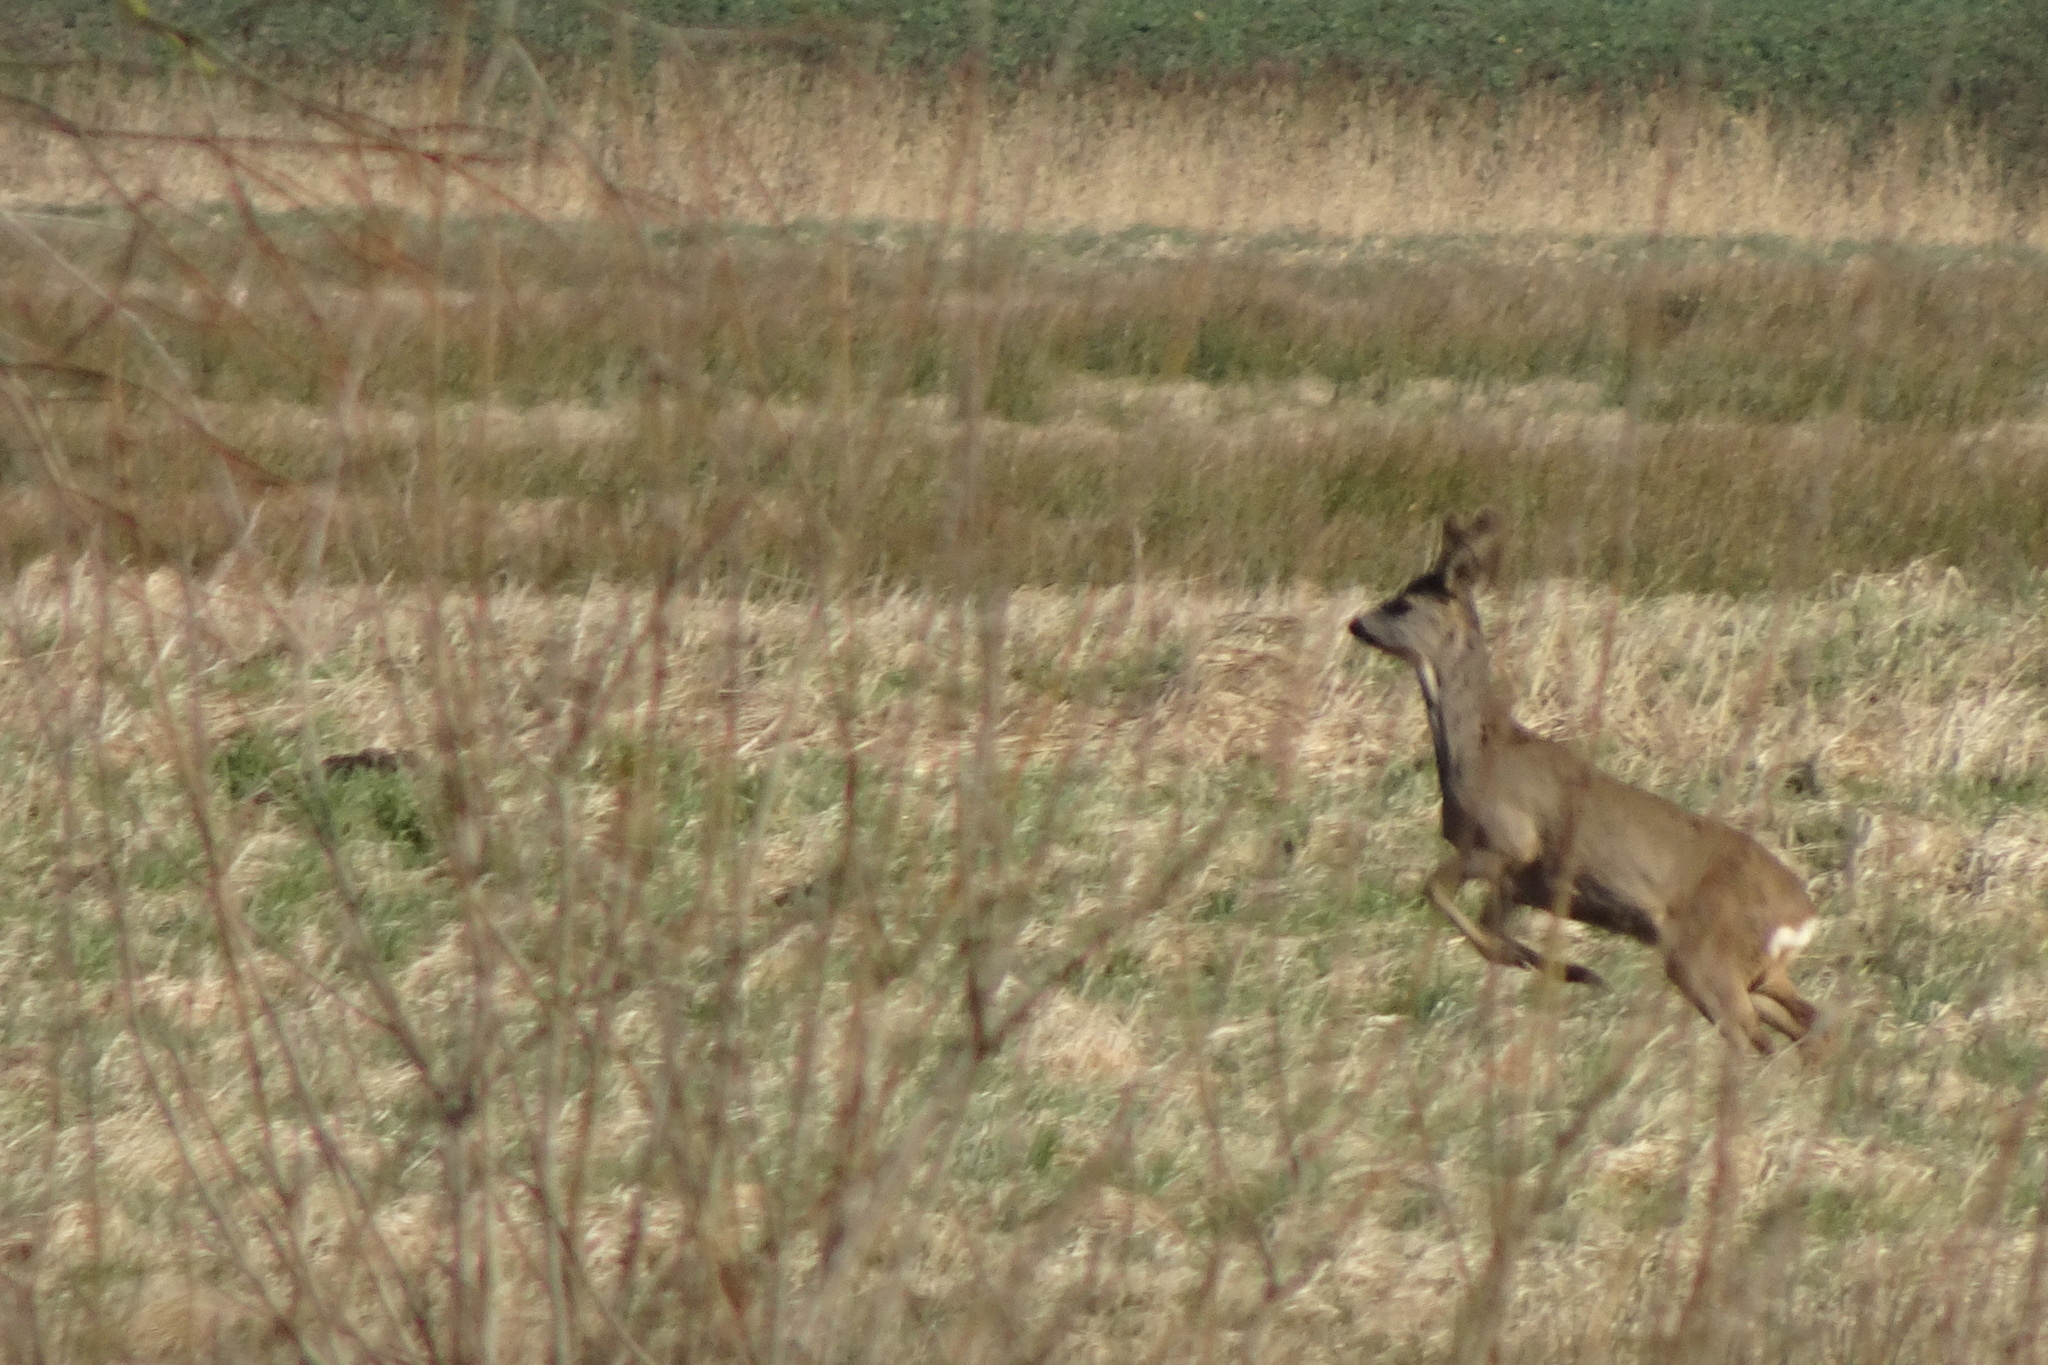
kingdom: Animalia
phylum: Chordata
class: Mammalia
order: Artiodactyla
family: Cervidae
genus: Capreolus
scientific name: Capreolus capreolus
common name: Western roe deer
